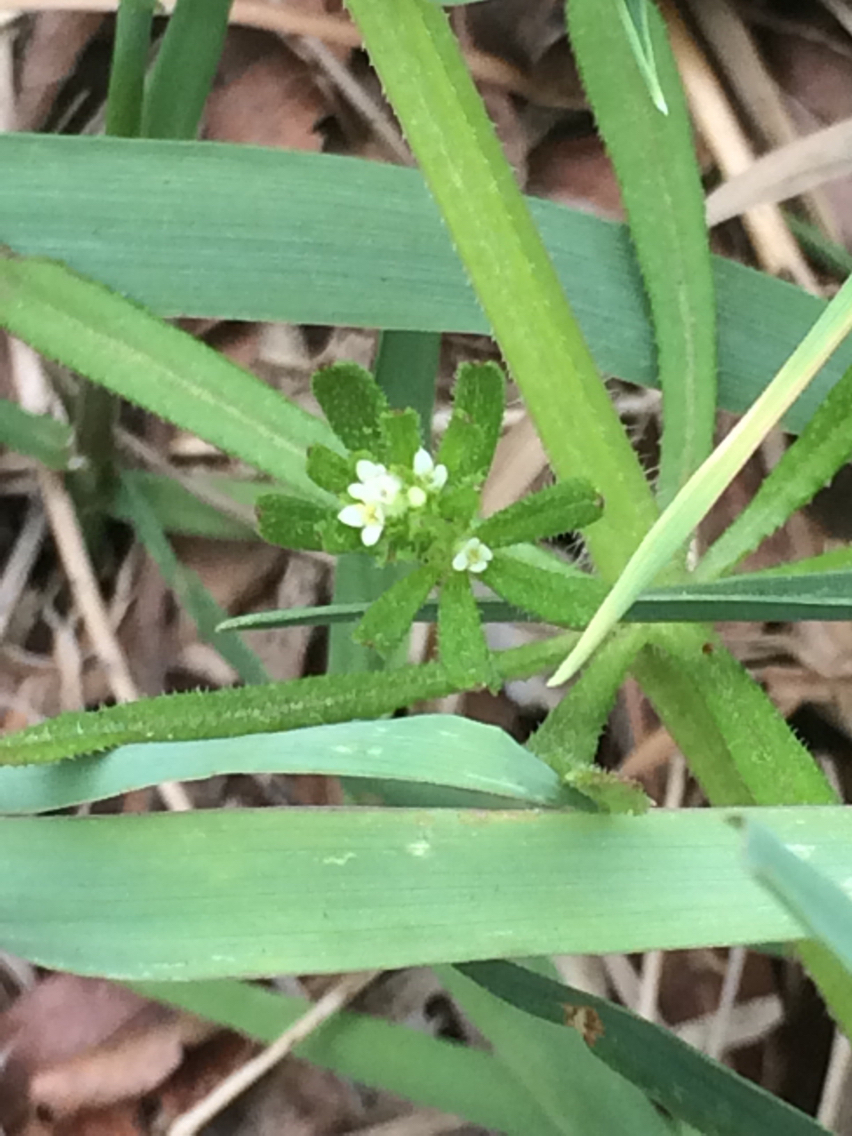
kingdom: Plantae
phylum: Tracheophyta
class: Magnoliopsida
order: Gentianales
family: Rubiaceae
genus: Galium
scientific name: Galium aparine
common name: Cleavers
